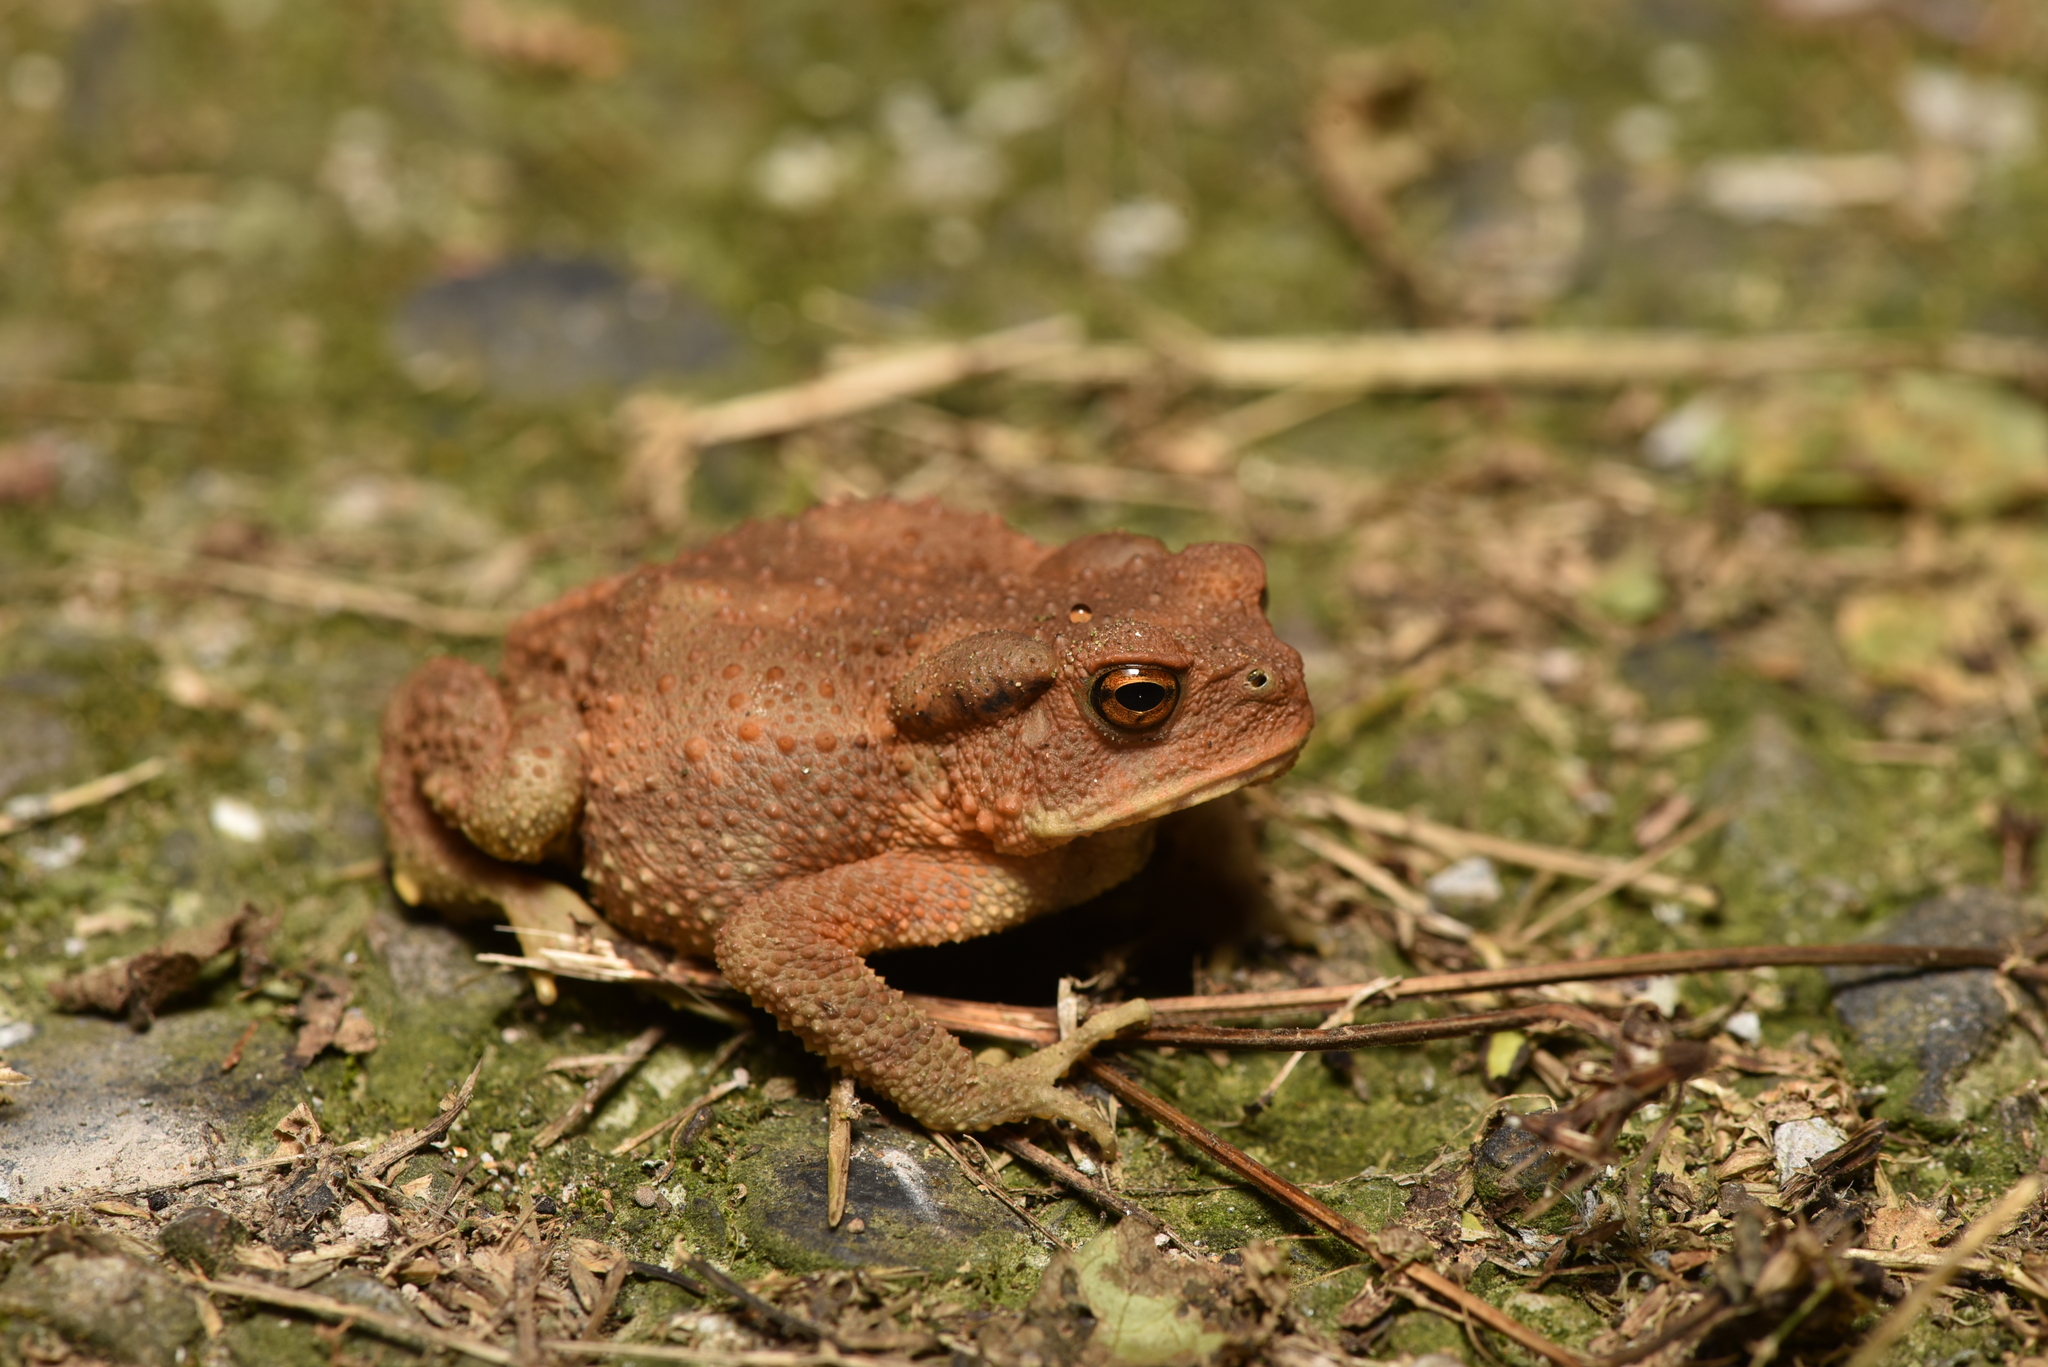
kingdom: Animalia
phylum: Chordata
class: Amphibia
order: Anura
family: Bufonidae
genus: Bufo
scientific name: Bufo bankorensis
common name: Bankor toad
